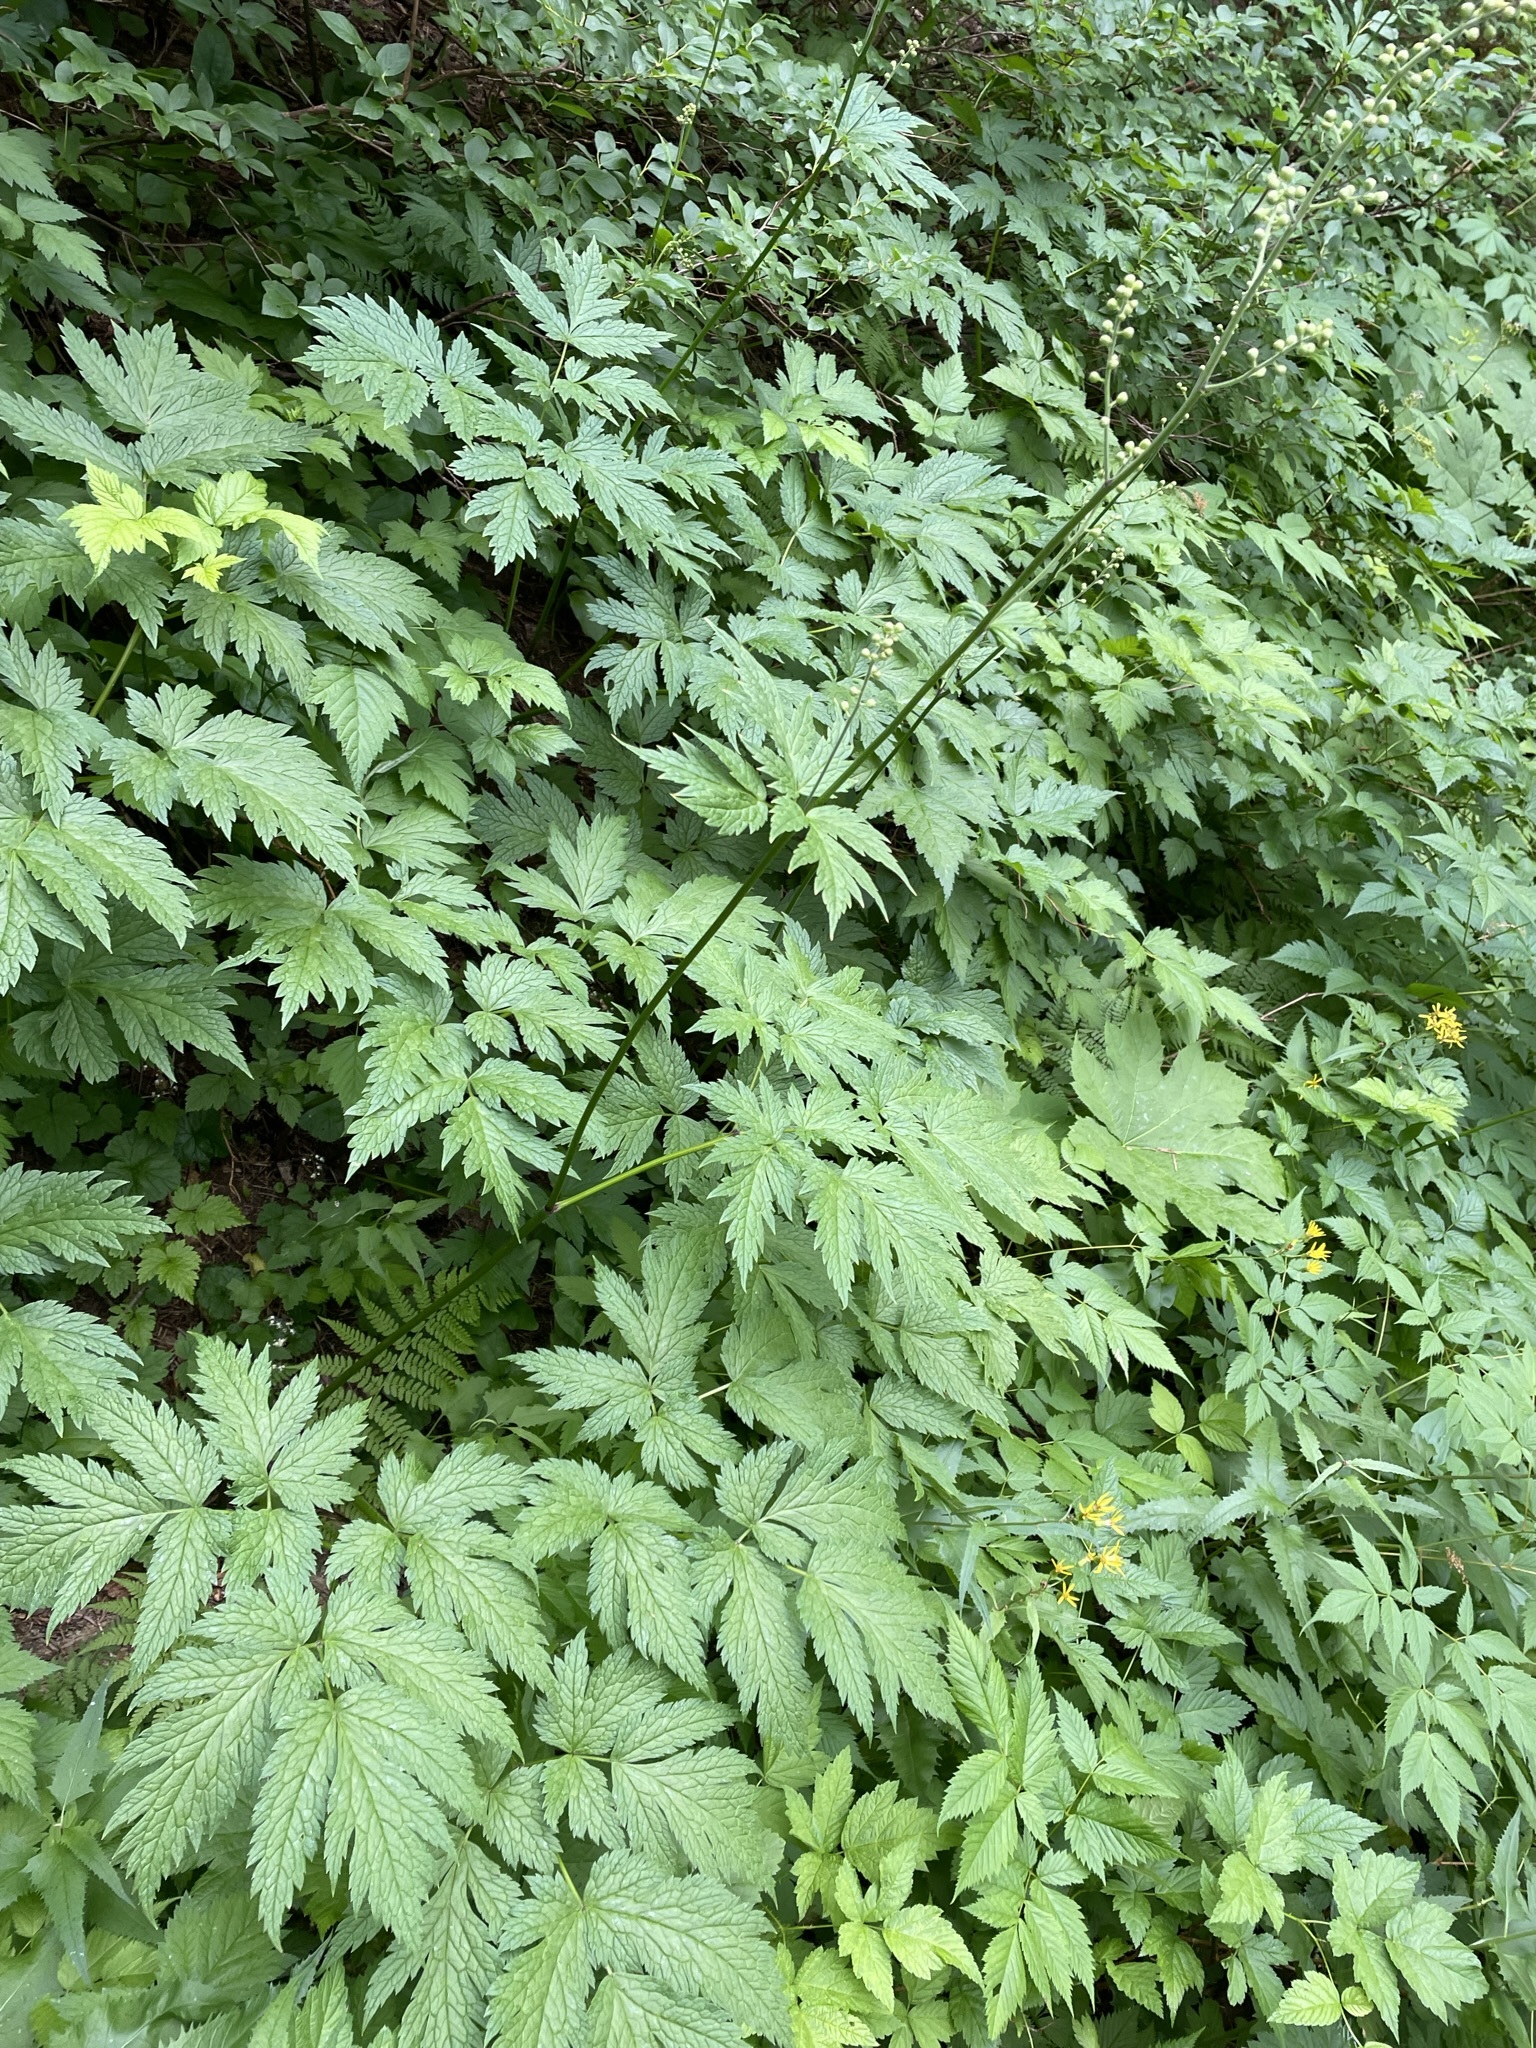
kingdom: Plantae
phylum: Tracheophyta
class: Magnoliopsida
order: Ranunculales
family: Ranunculaceae
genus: Actaea
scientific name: Actaea laciniata
